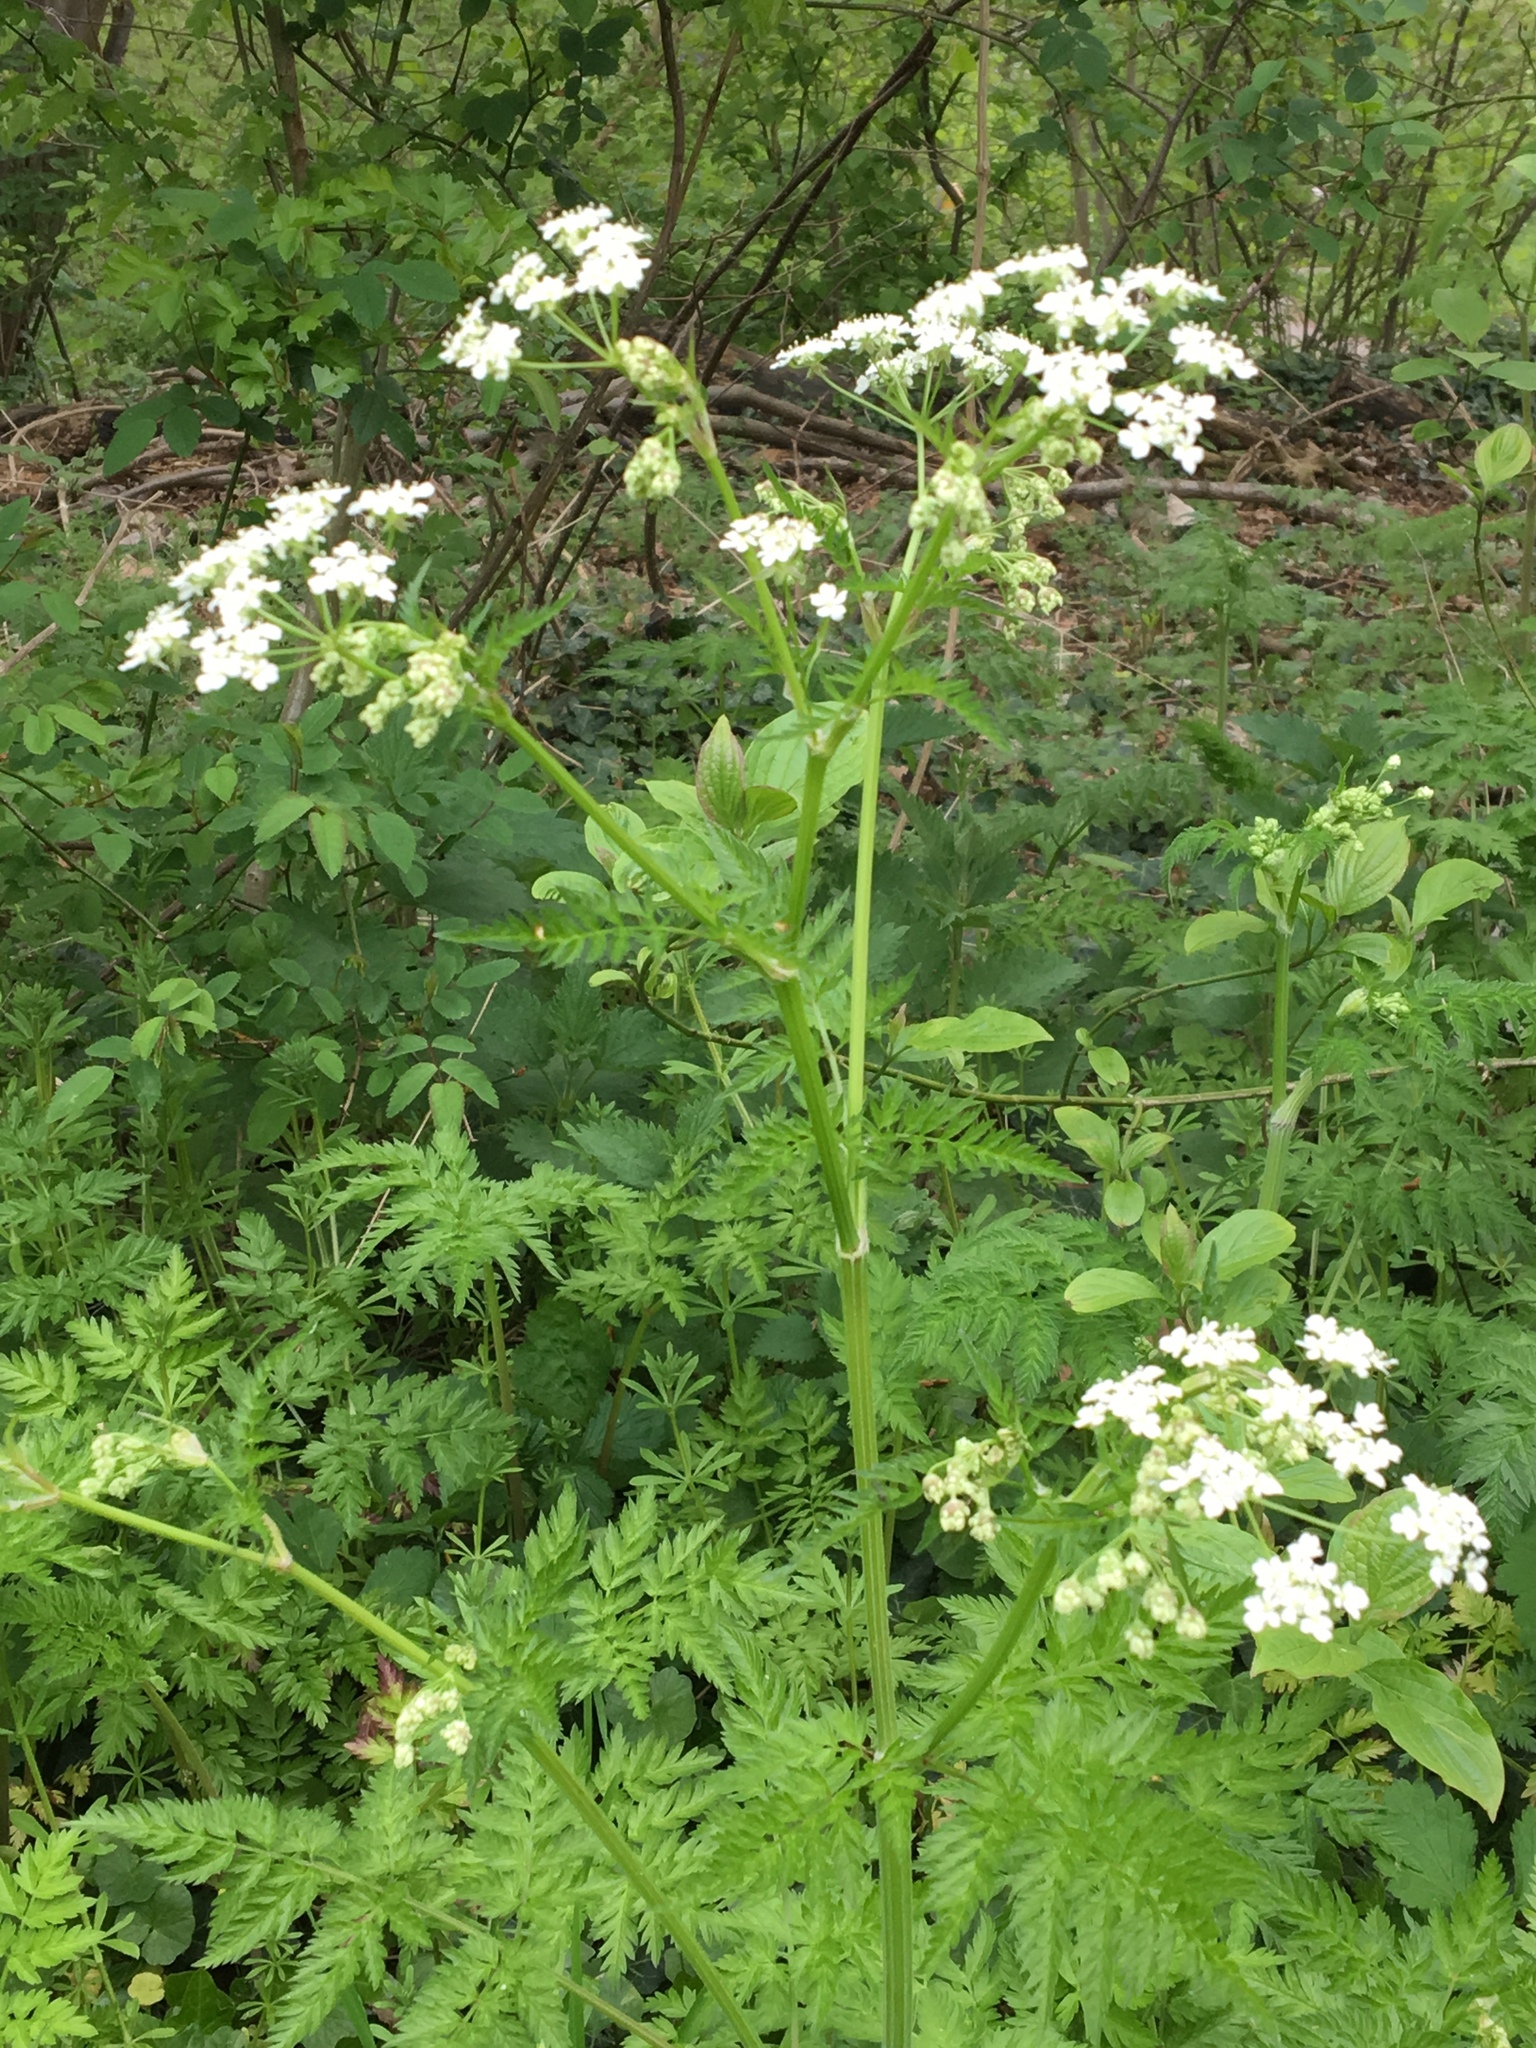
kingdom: Plantae
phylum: Tracheophyta
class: Magnoliopsida
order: Apiales
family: Apiaceae
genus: Anthriscus
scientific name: Anthriscus sylvestris
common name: Cow parsley
